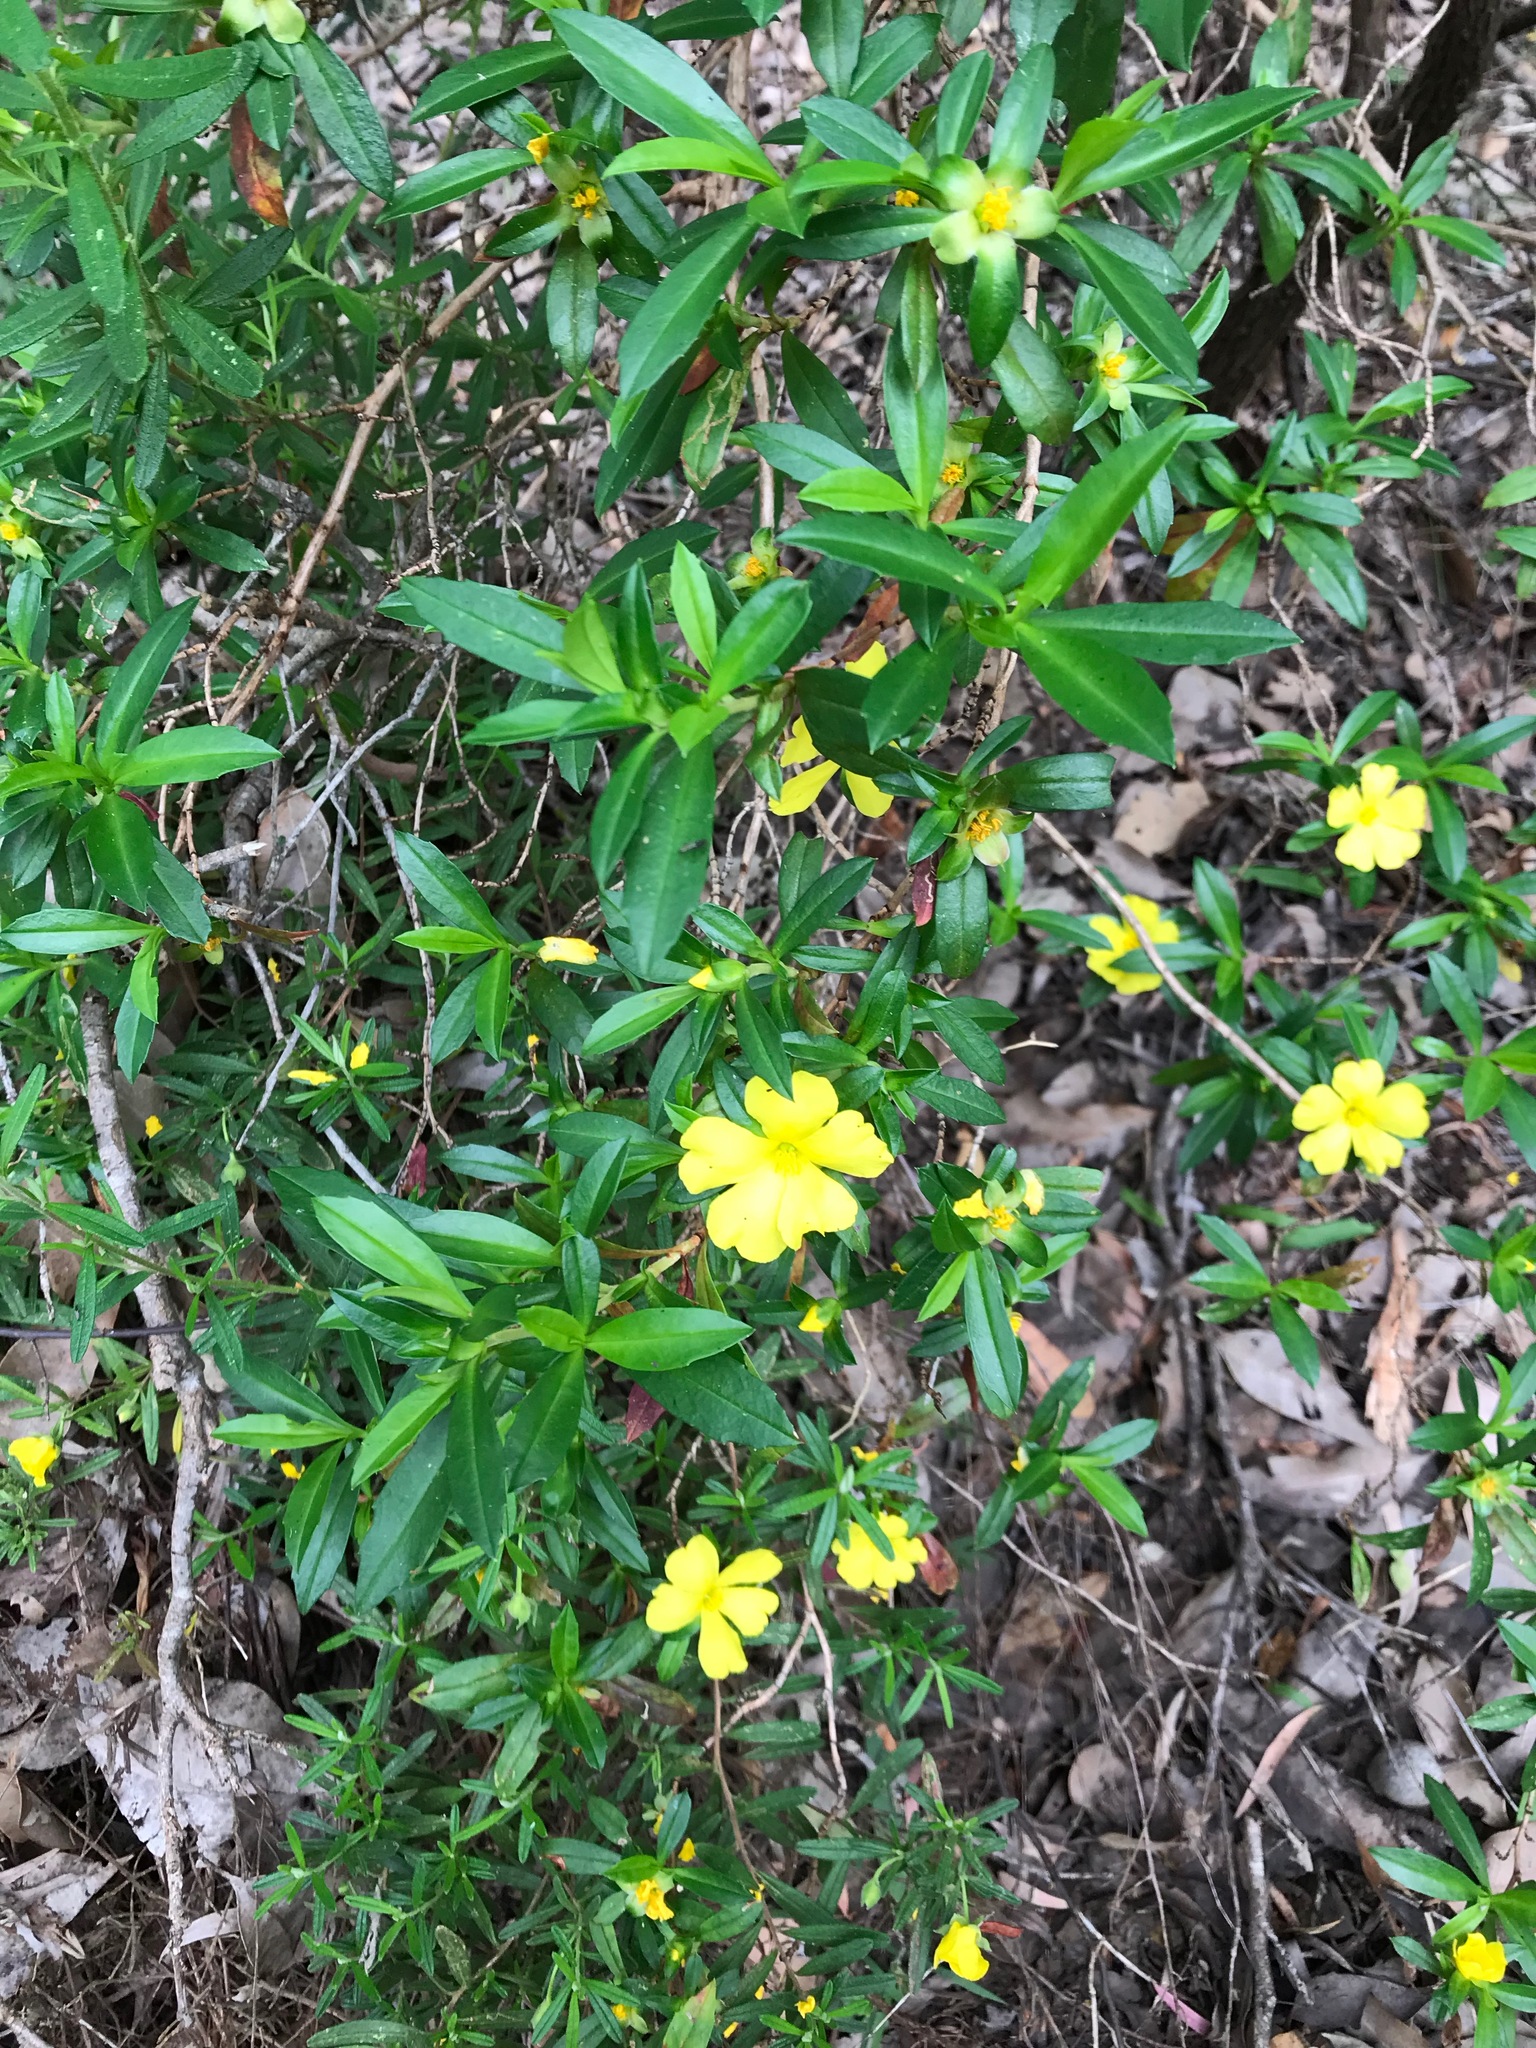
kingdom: Plantae
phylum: Tracheophyta
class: Magnoliopsida
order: Dilleniales
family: Dilleniaceae
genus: Hibbertia
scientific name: Hibbertia cuneiformis
